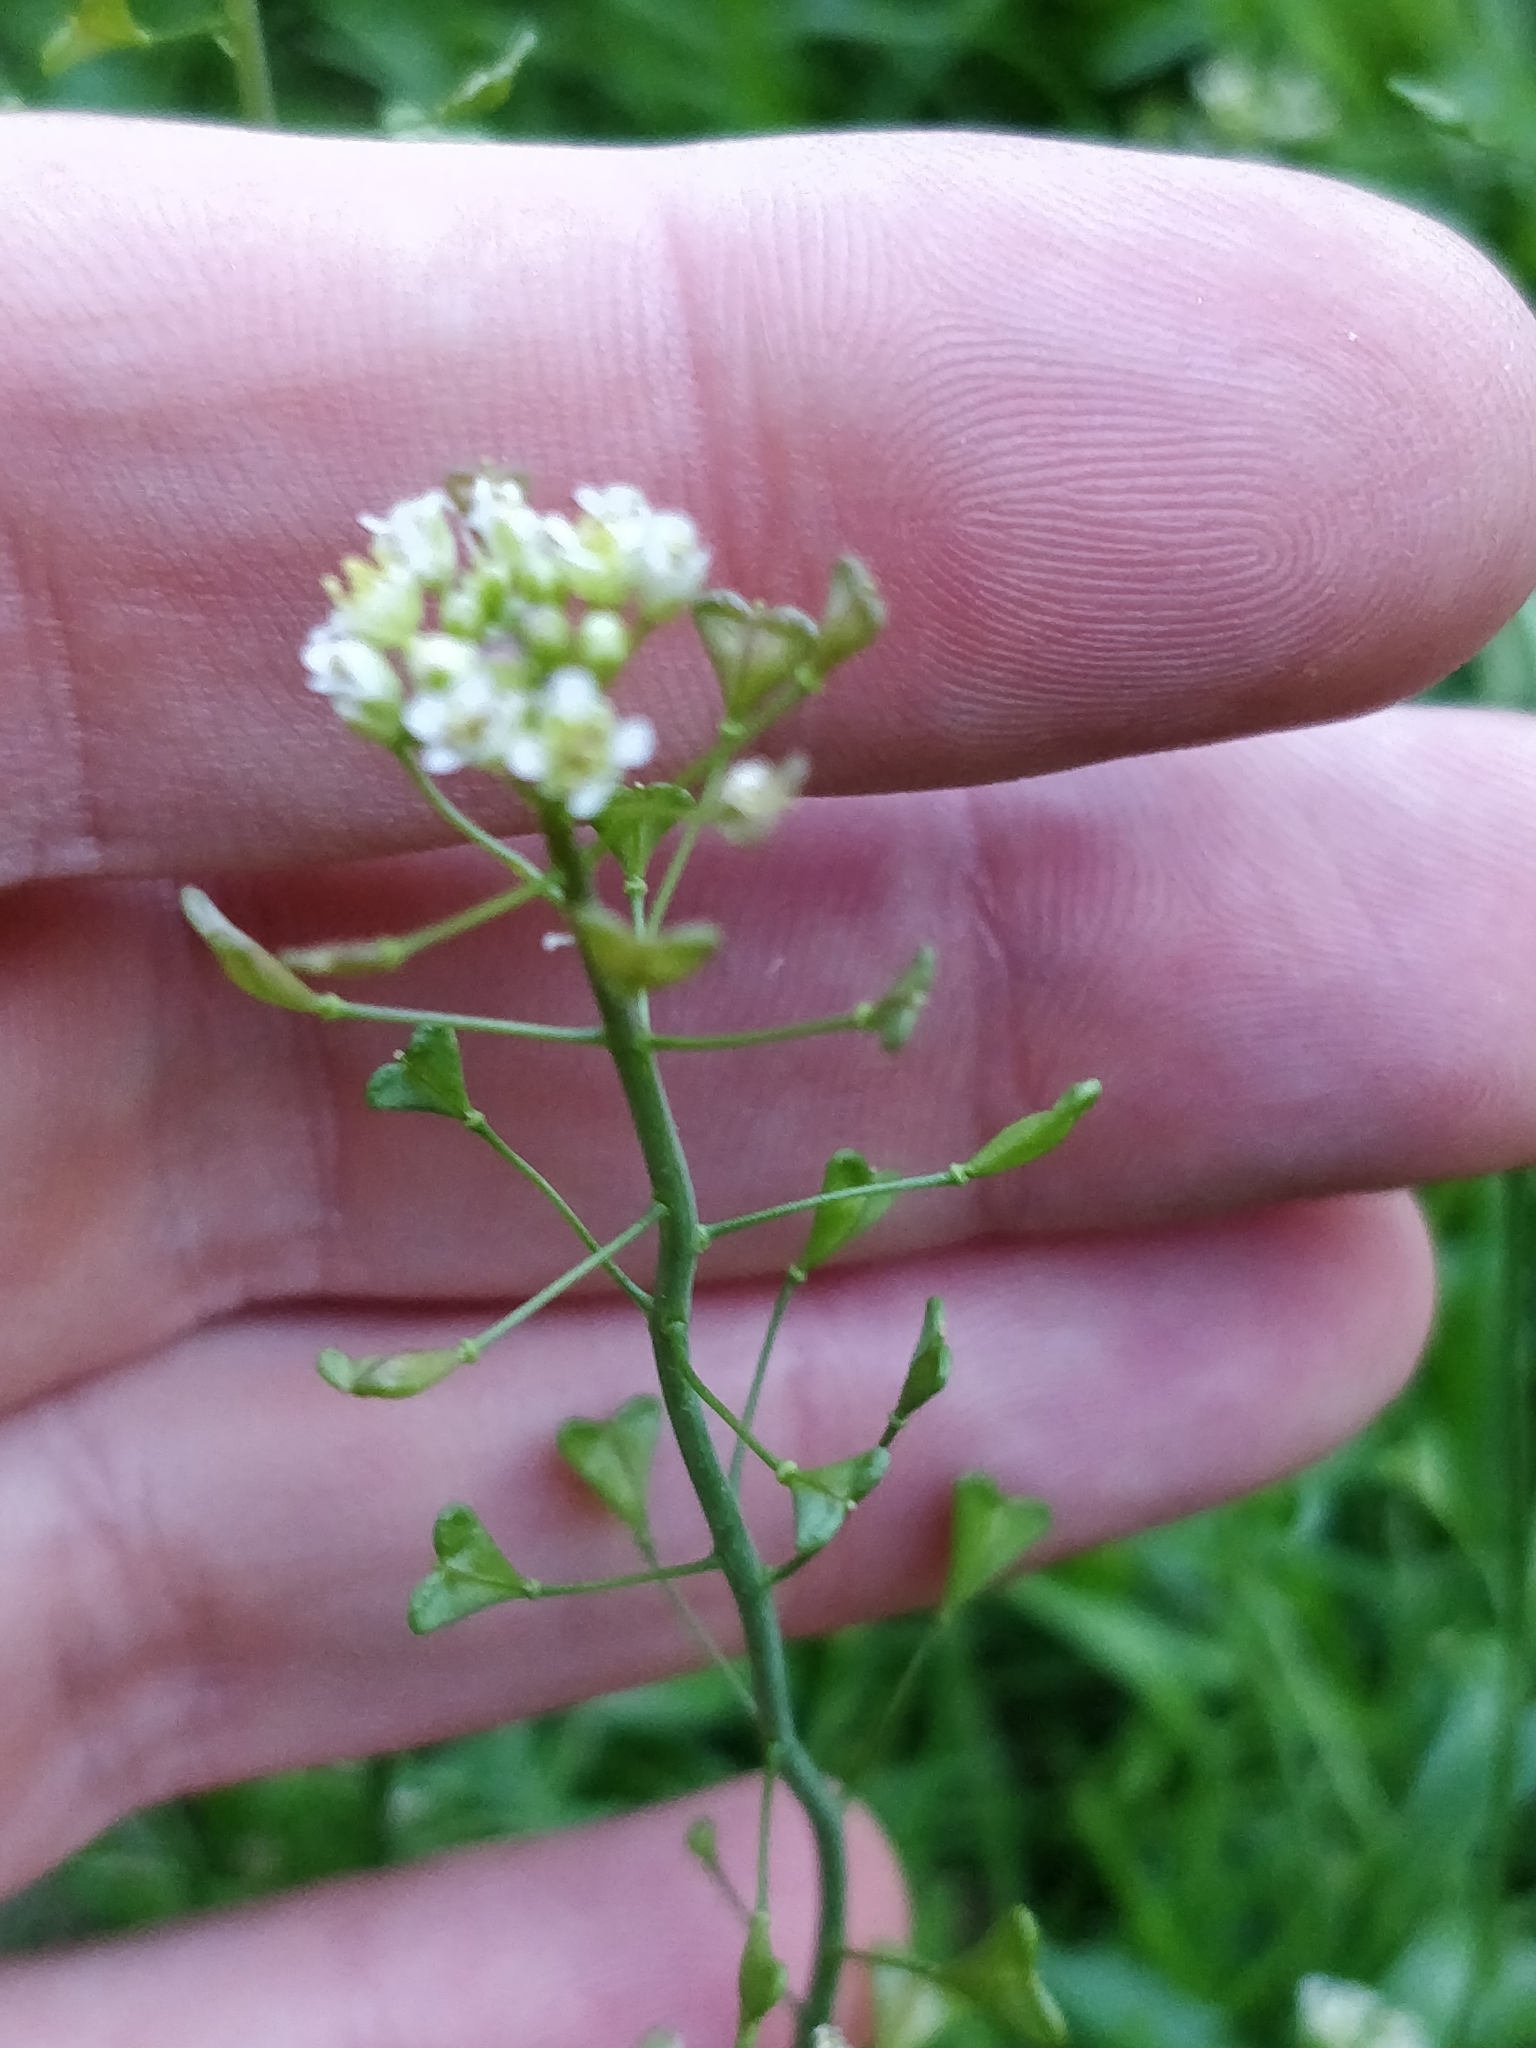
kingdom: Plantae
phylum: Tracheophyta
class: Magnoliopsida
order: Brassicales
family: Brassicaceae
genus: Capsella
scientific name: Capsella bursa-pastoris
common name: Shepherd's purse
